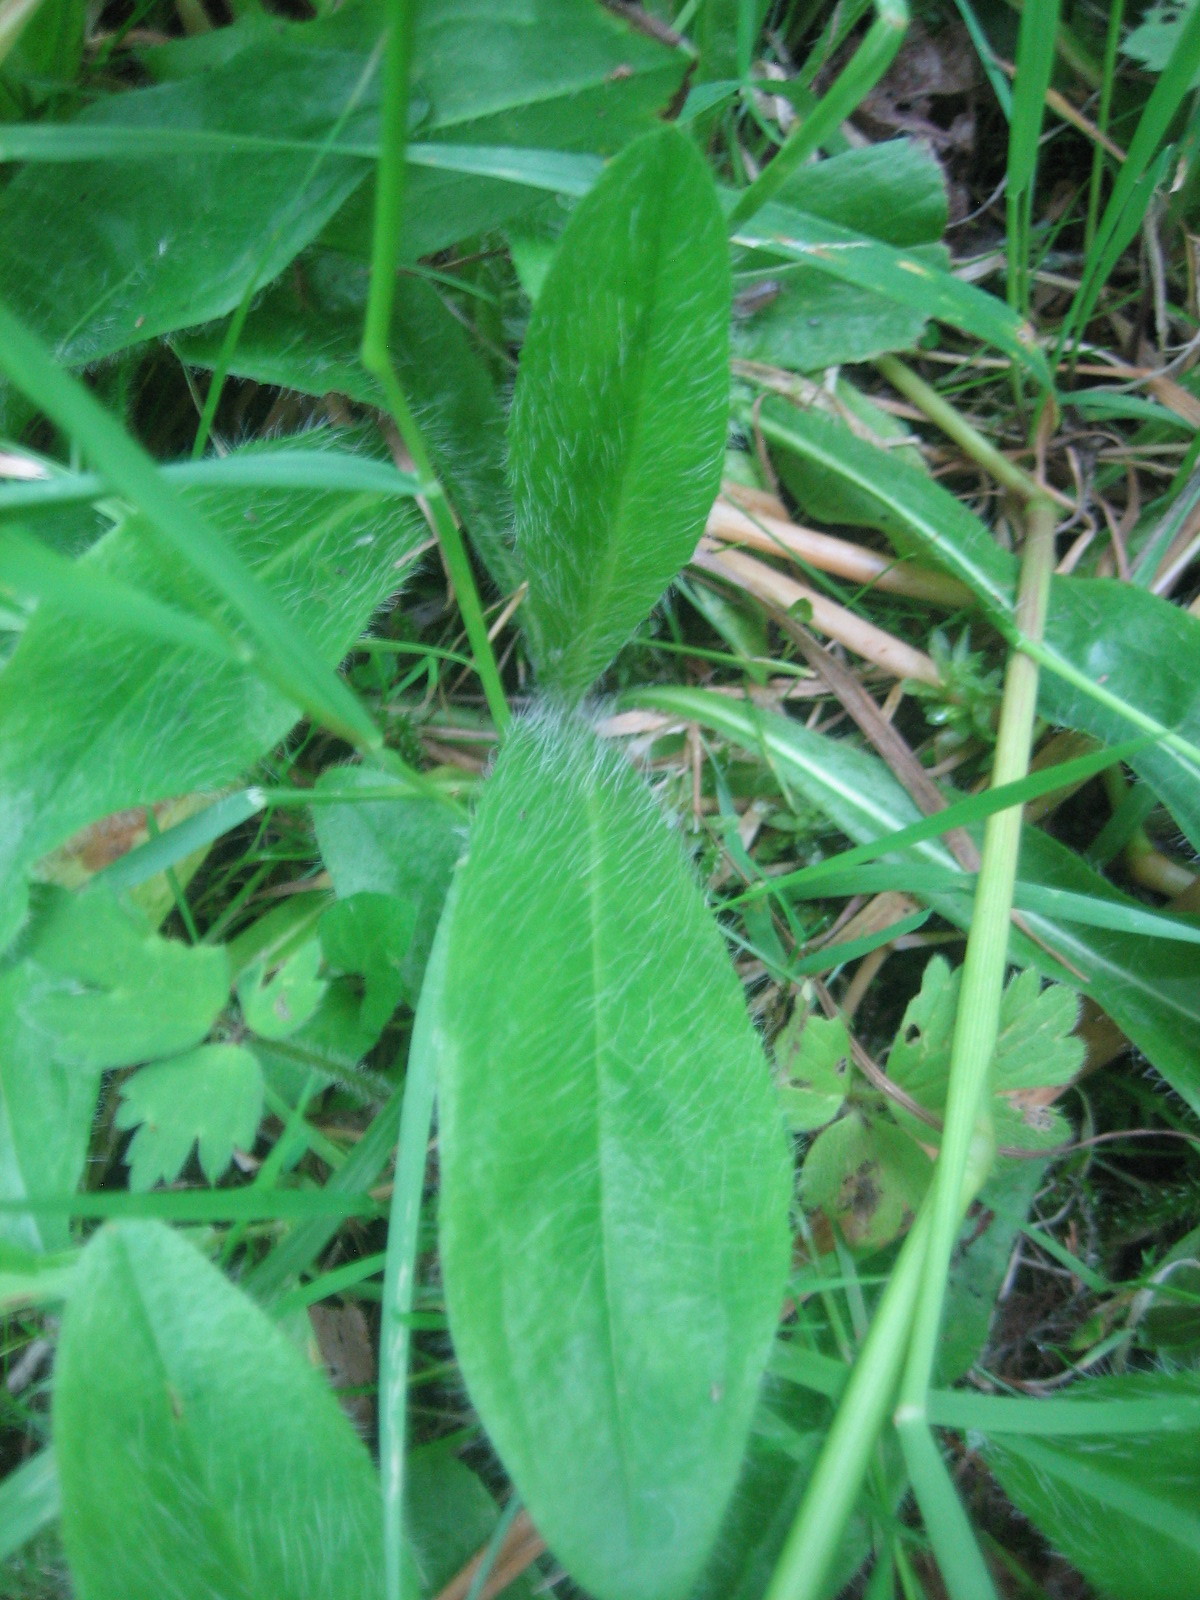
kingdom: Plantae
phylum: Tracheophyta
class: Magnoliopsida
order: Asterales
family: Asteraceae
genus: Pilosella
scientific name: Pilosella aurantiaca
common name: Fox-and-cubs
